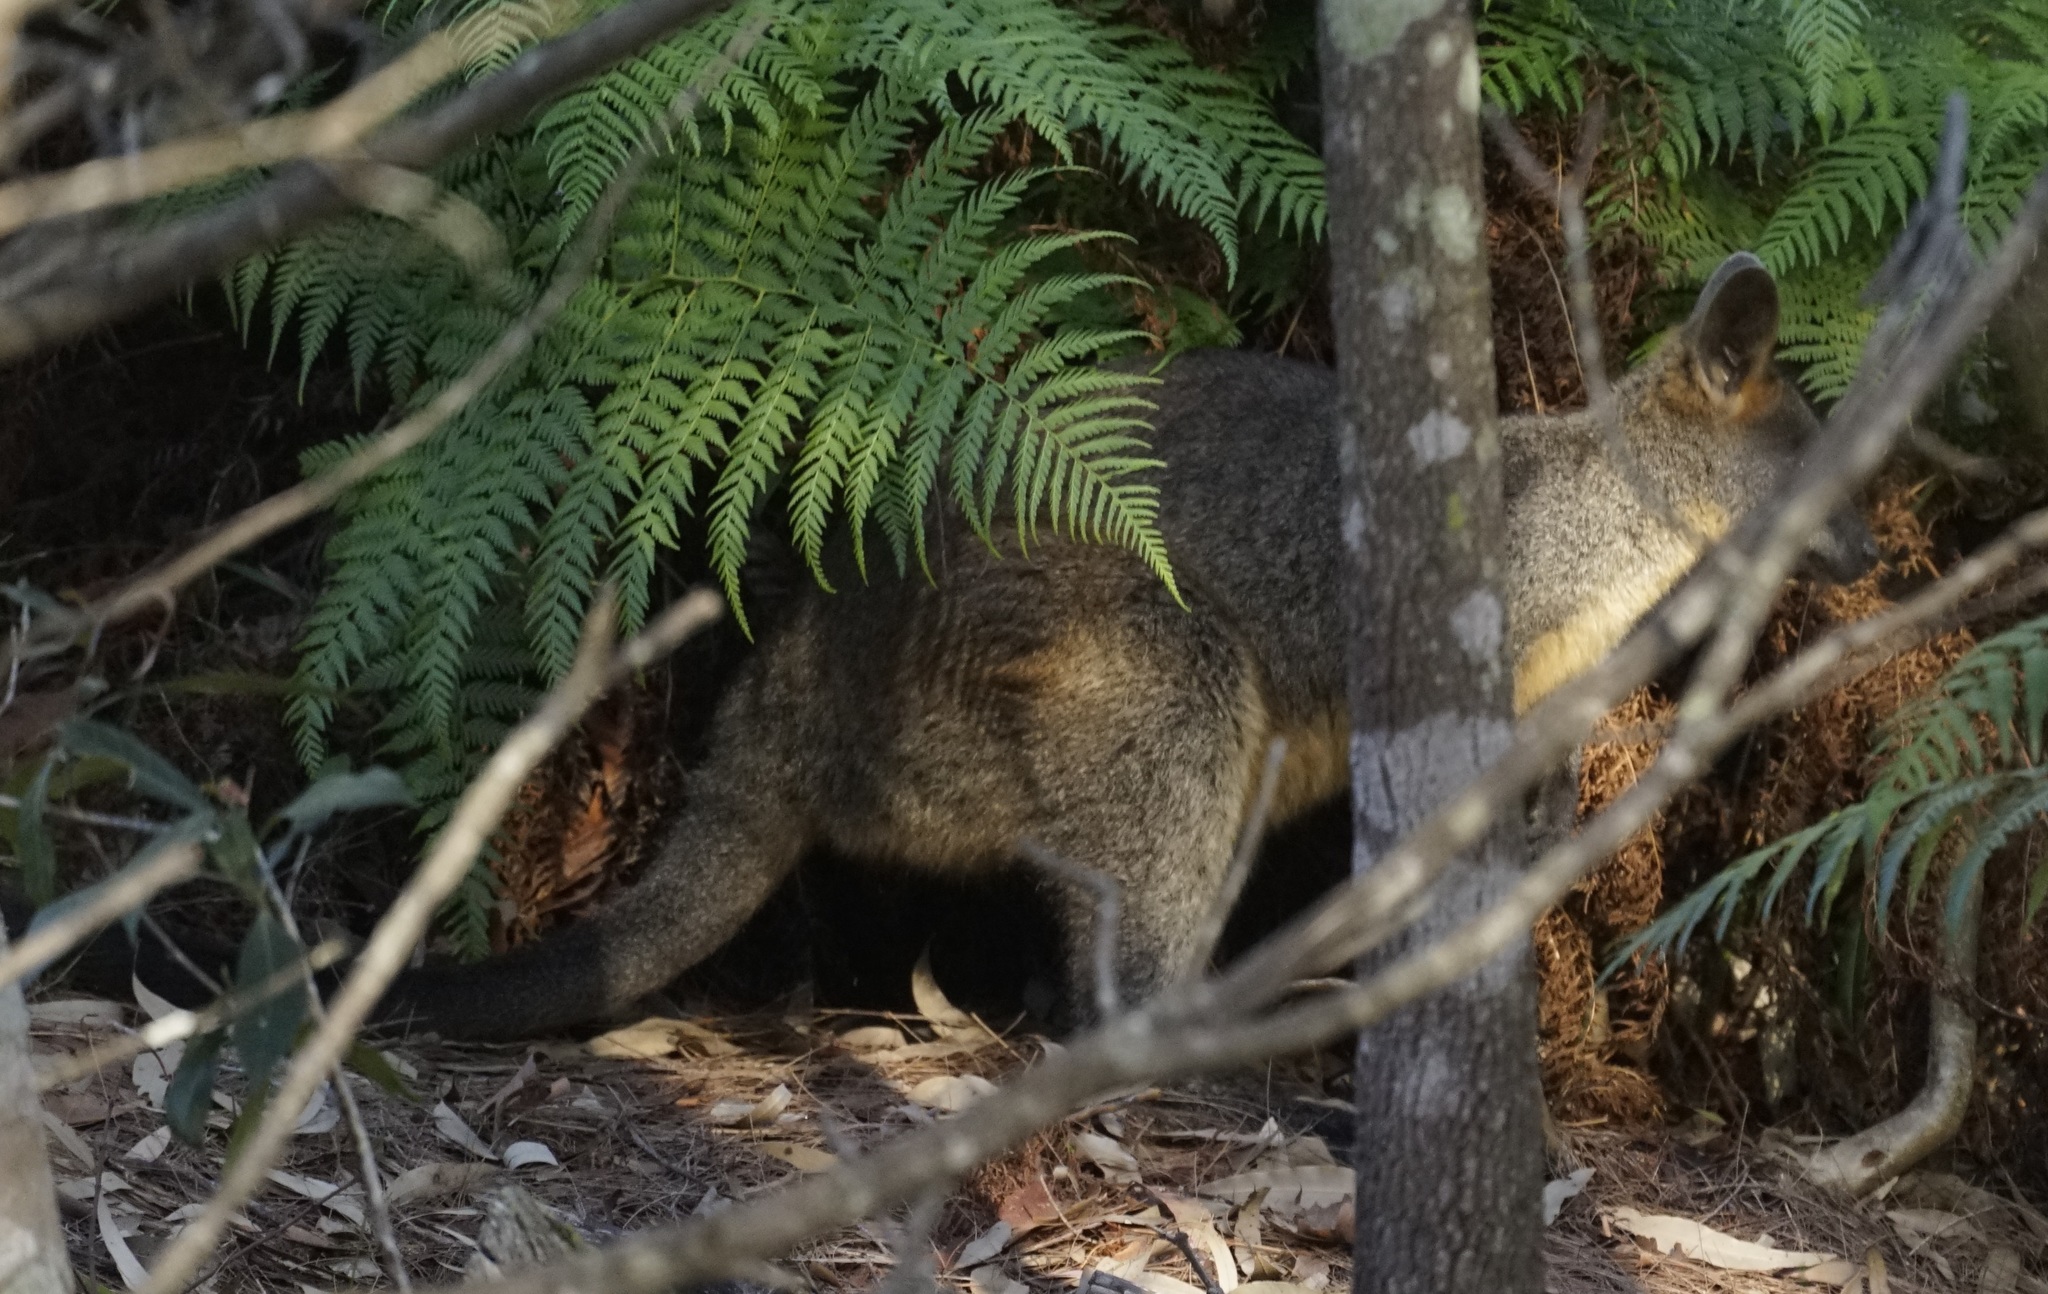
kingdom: Animalia
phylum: Chordata
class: Mammalia
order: Diprotodontia
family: Macropodidae
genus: Wallabia
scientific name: Wallabia bicolor
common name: Swamp wallaby
